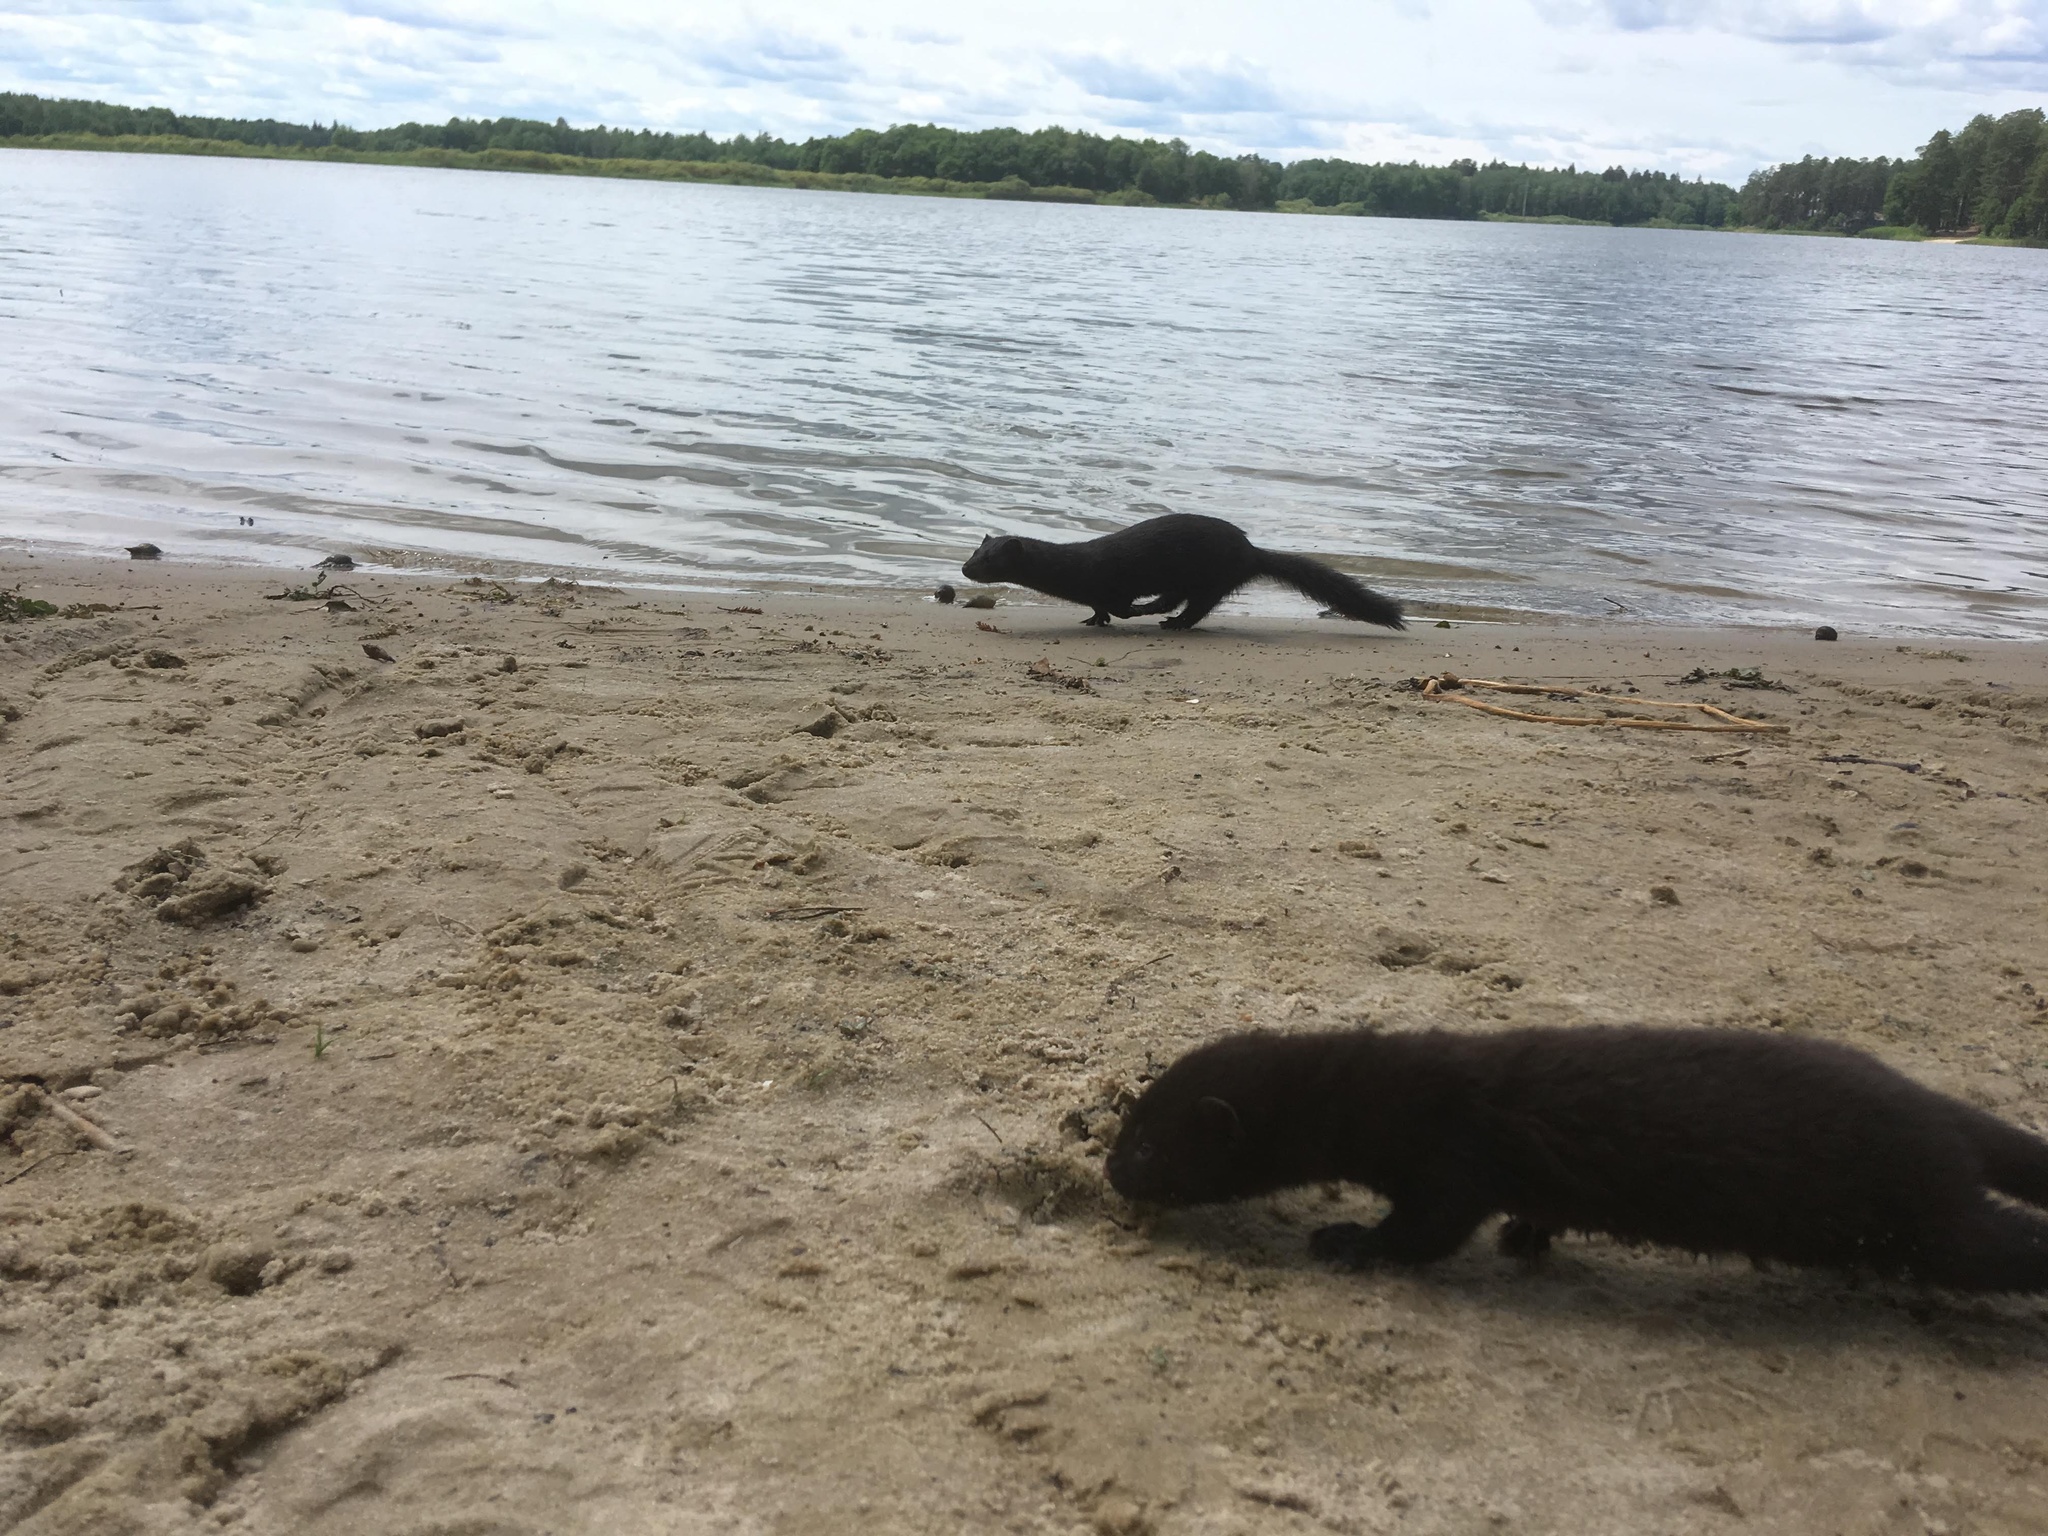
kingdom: Animalia
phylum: Chordata
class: Mammalia
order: Carnivora
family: Mustelidae
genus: Mustela
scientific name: Mustela
